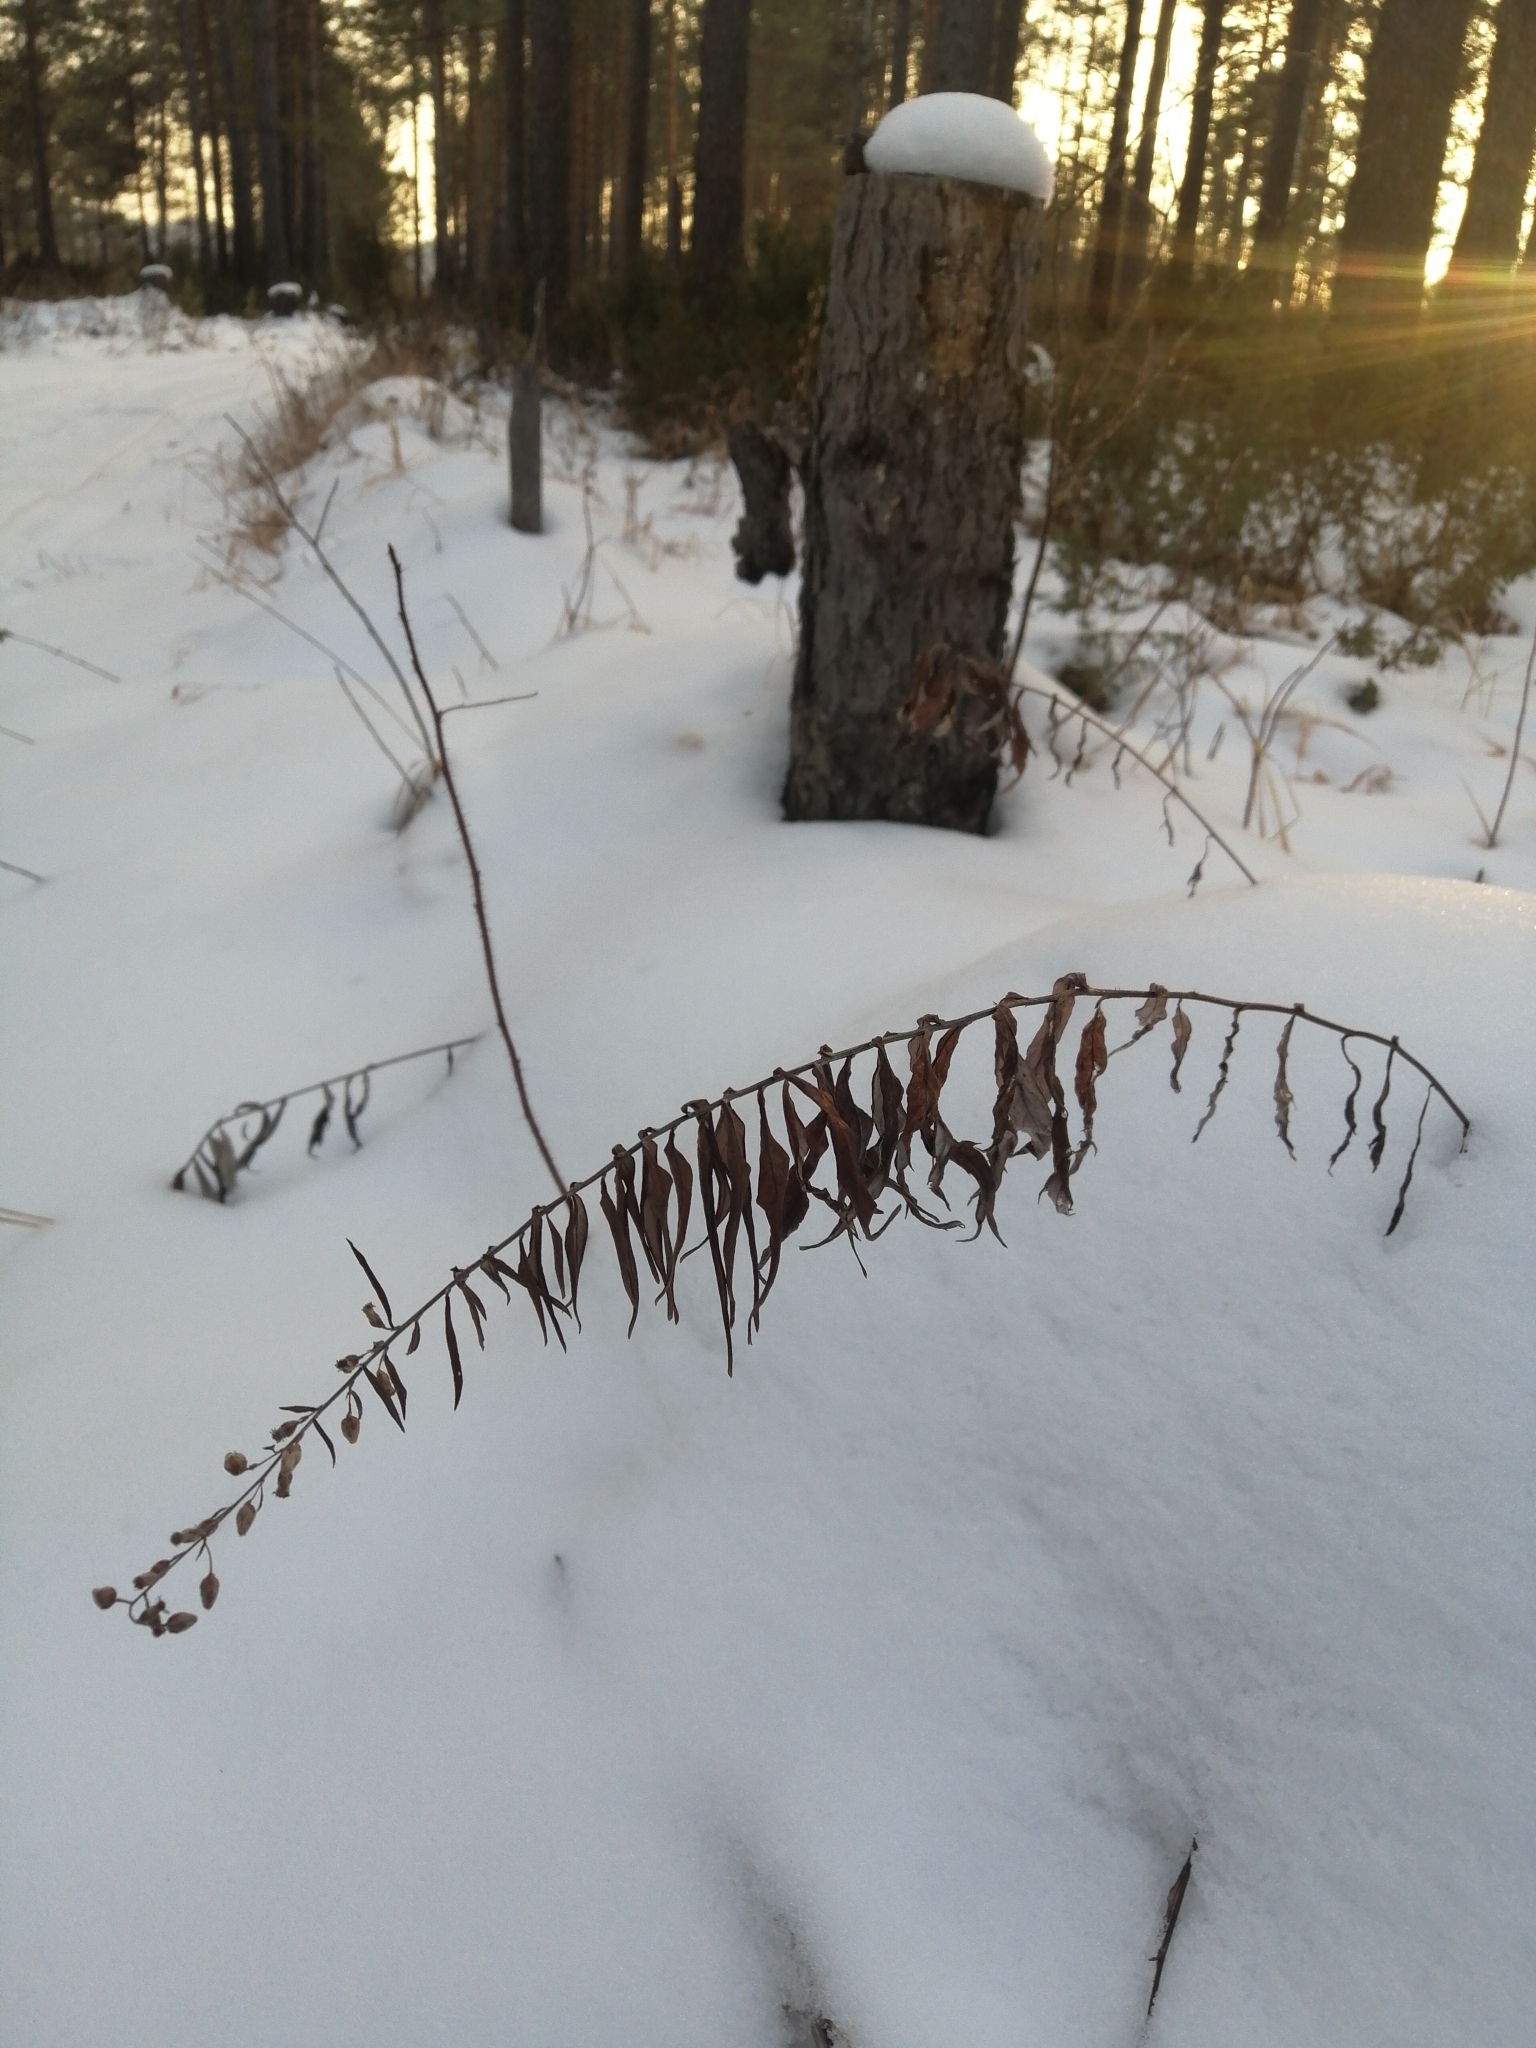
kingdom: Plantae
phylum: Tracheophyta
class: Magnoliopsida
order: Asterales
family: Asteraceae
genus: Artemisia
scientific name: Artemisia integrifolia
